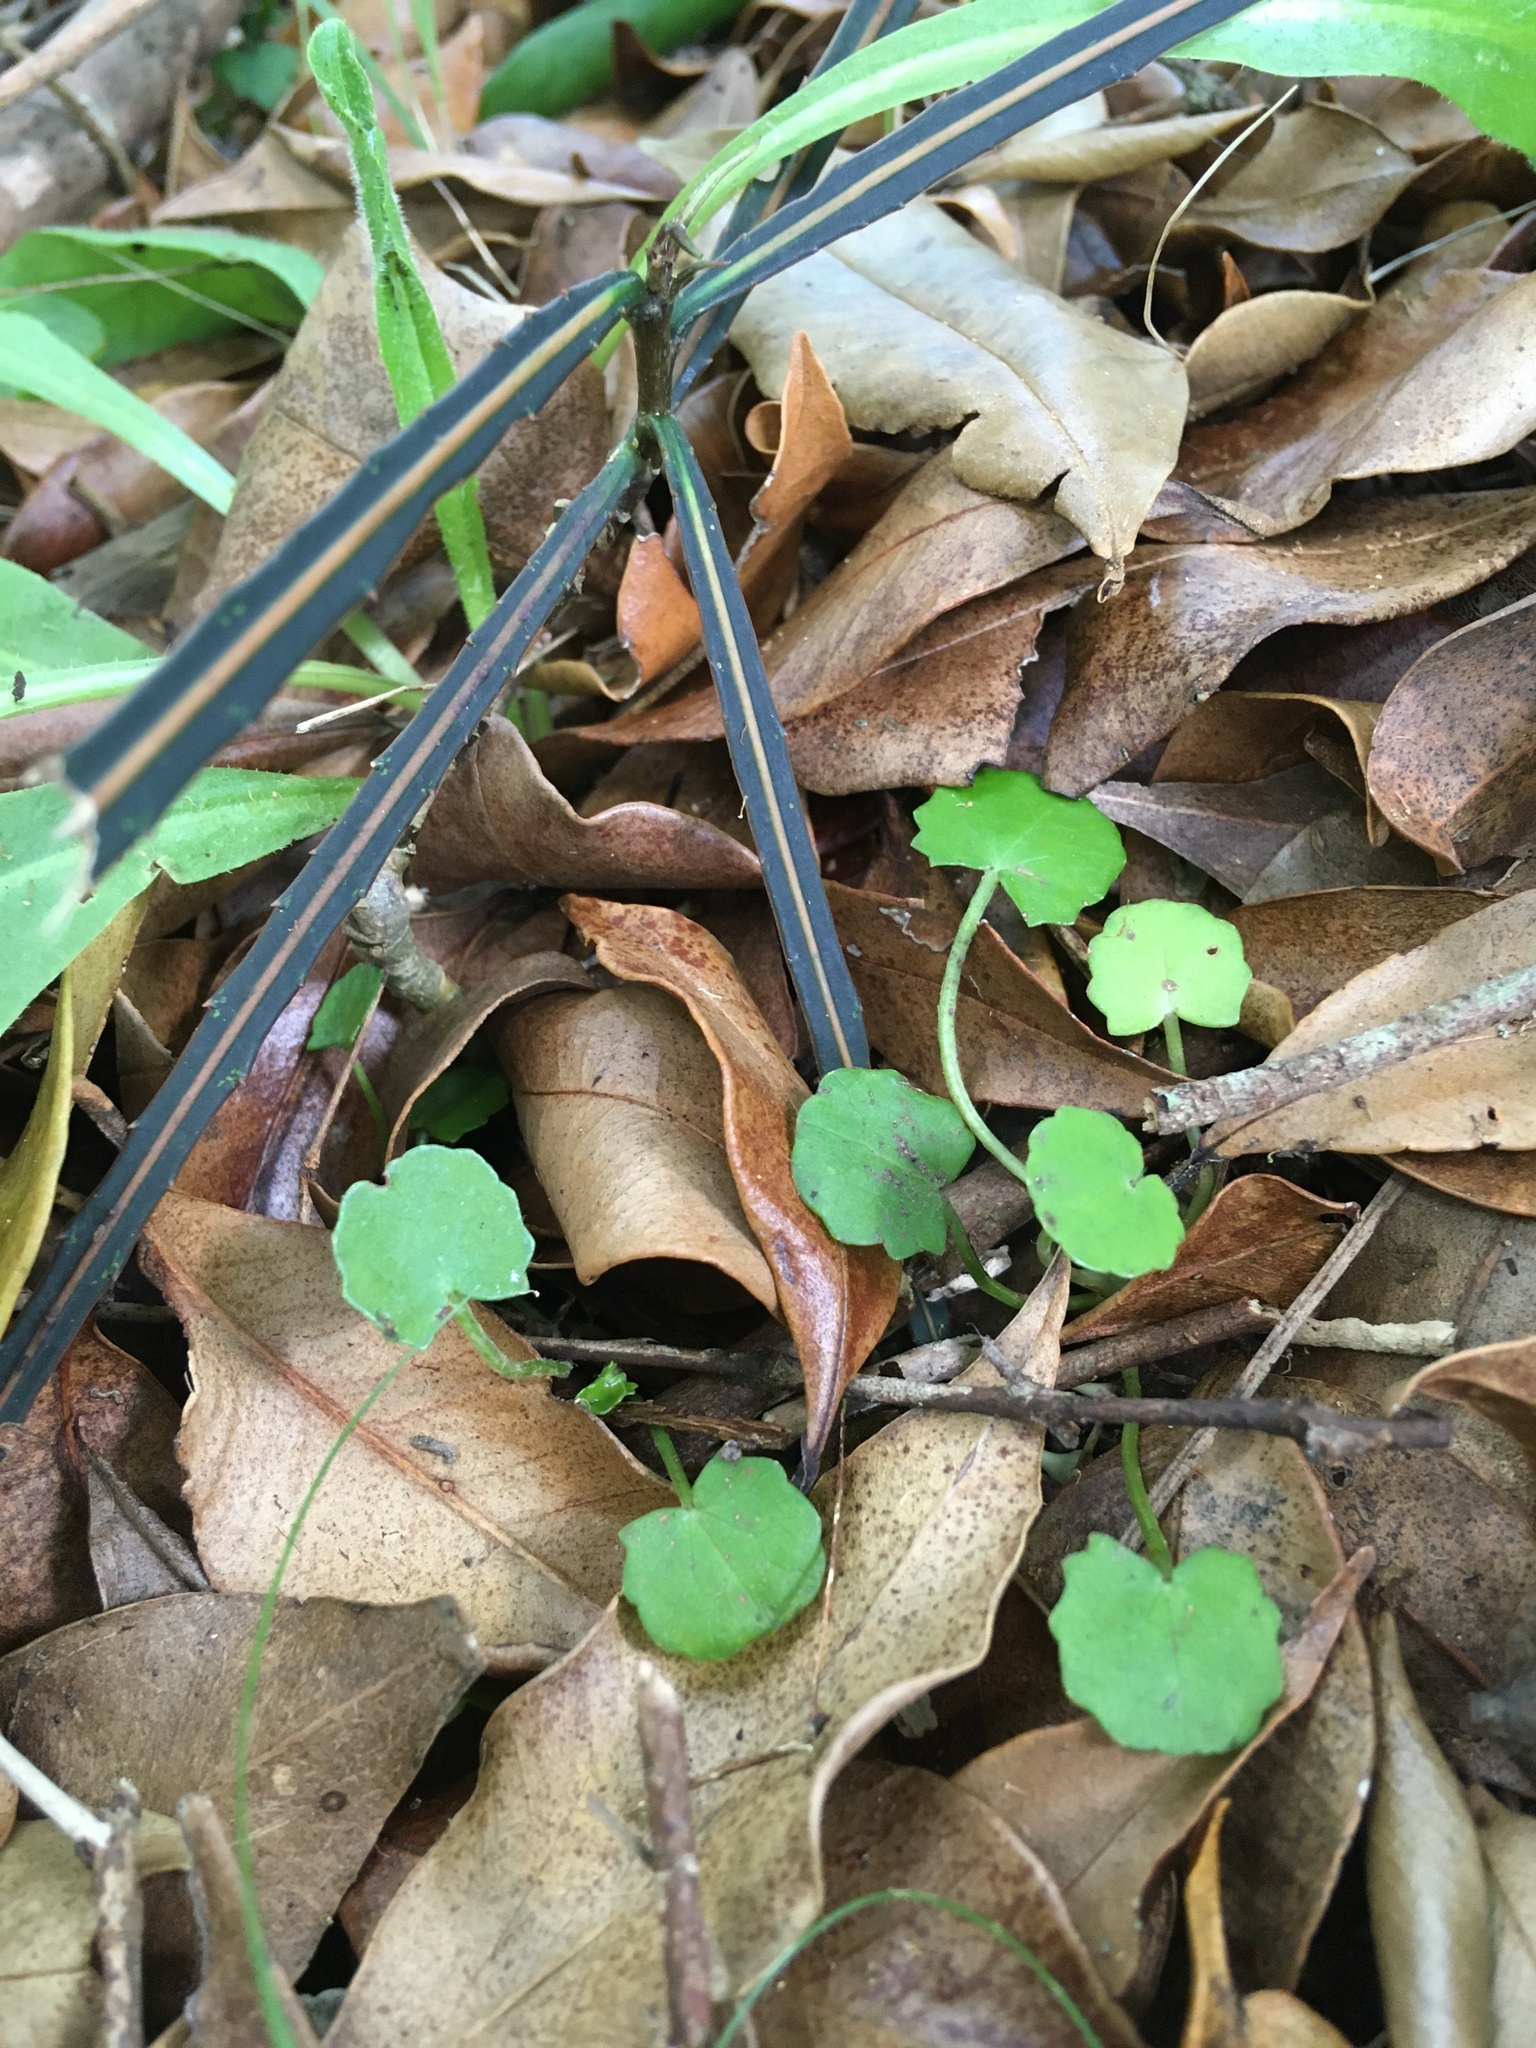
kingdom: Plantae
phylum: Tracheophyta
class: Magnoliopsida
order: Apiales
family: Apiaceae
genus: Centella
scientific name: Centella uniflora
